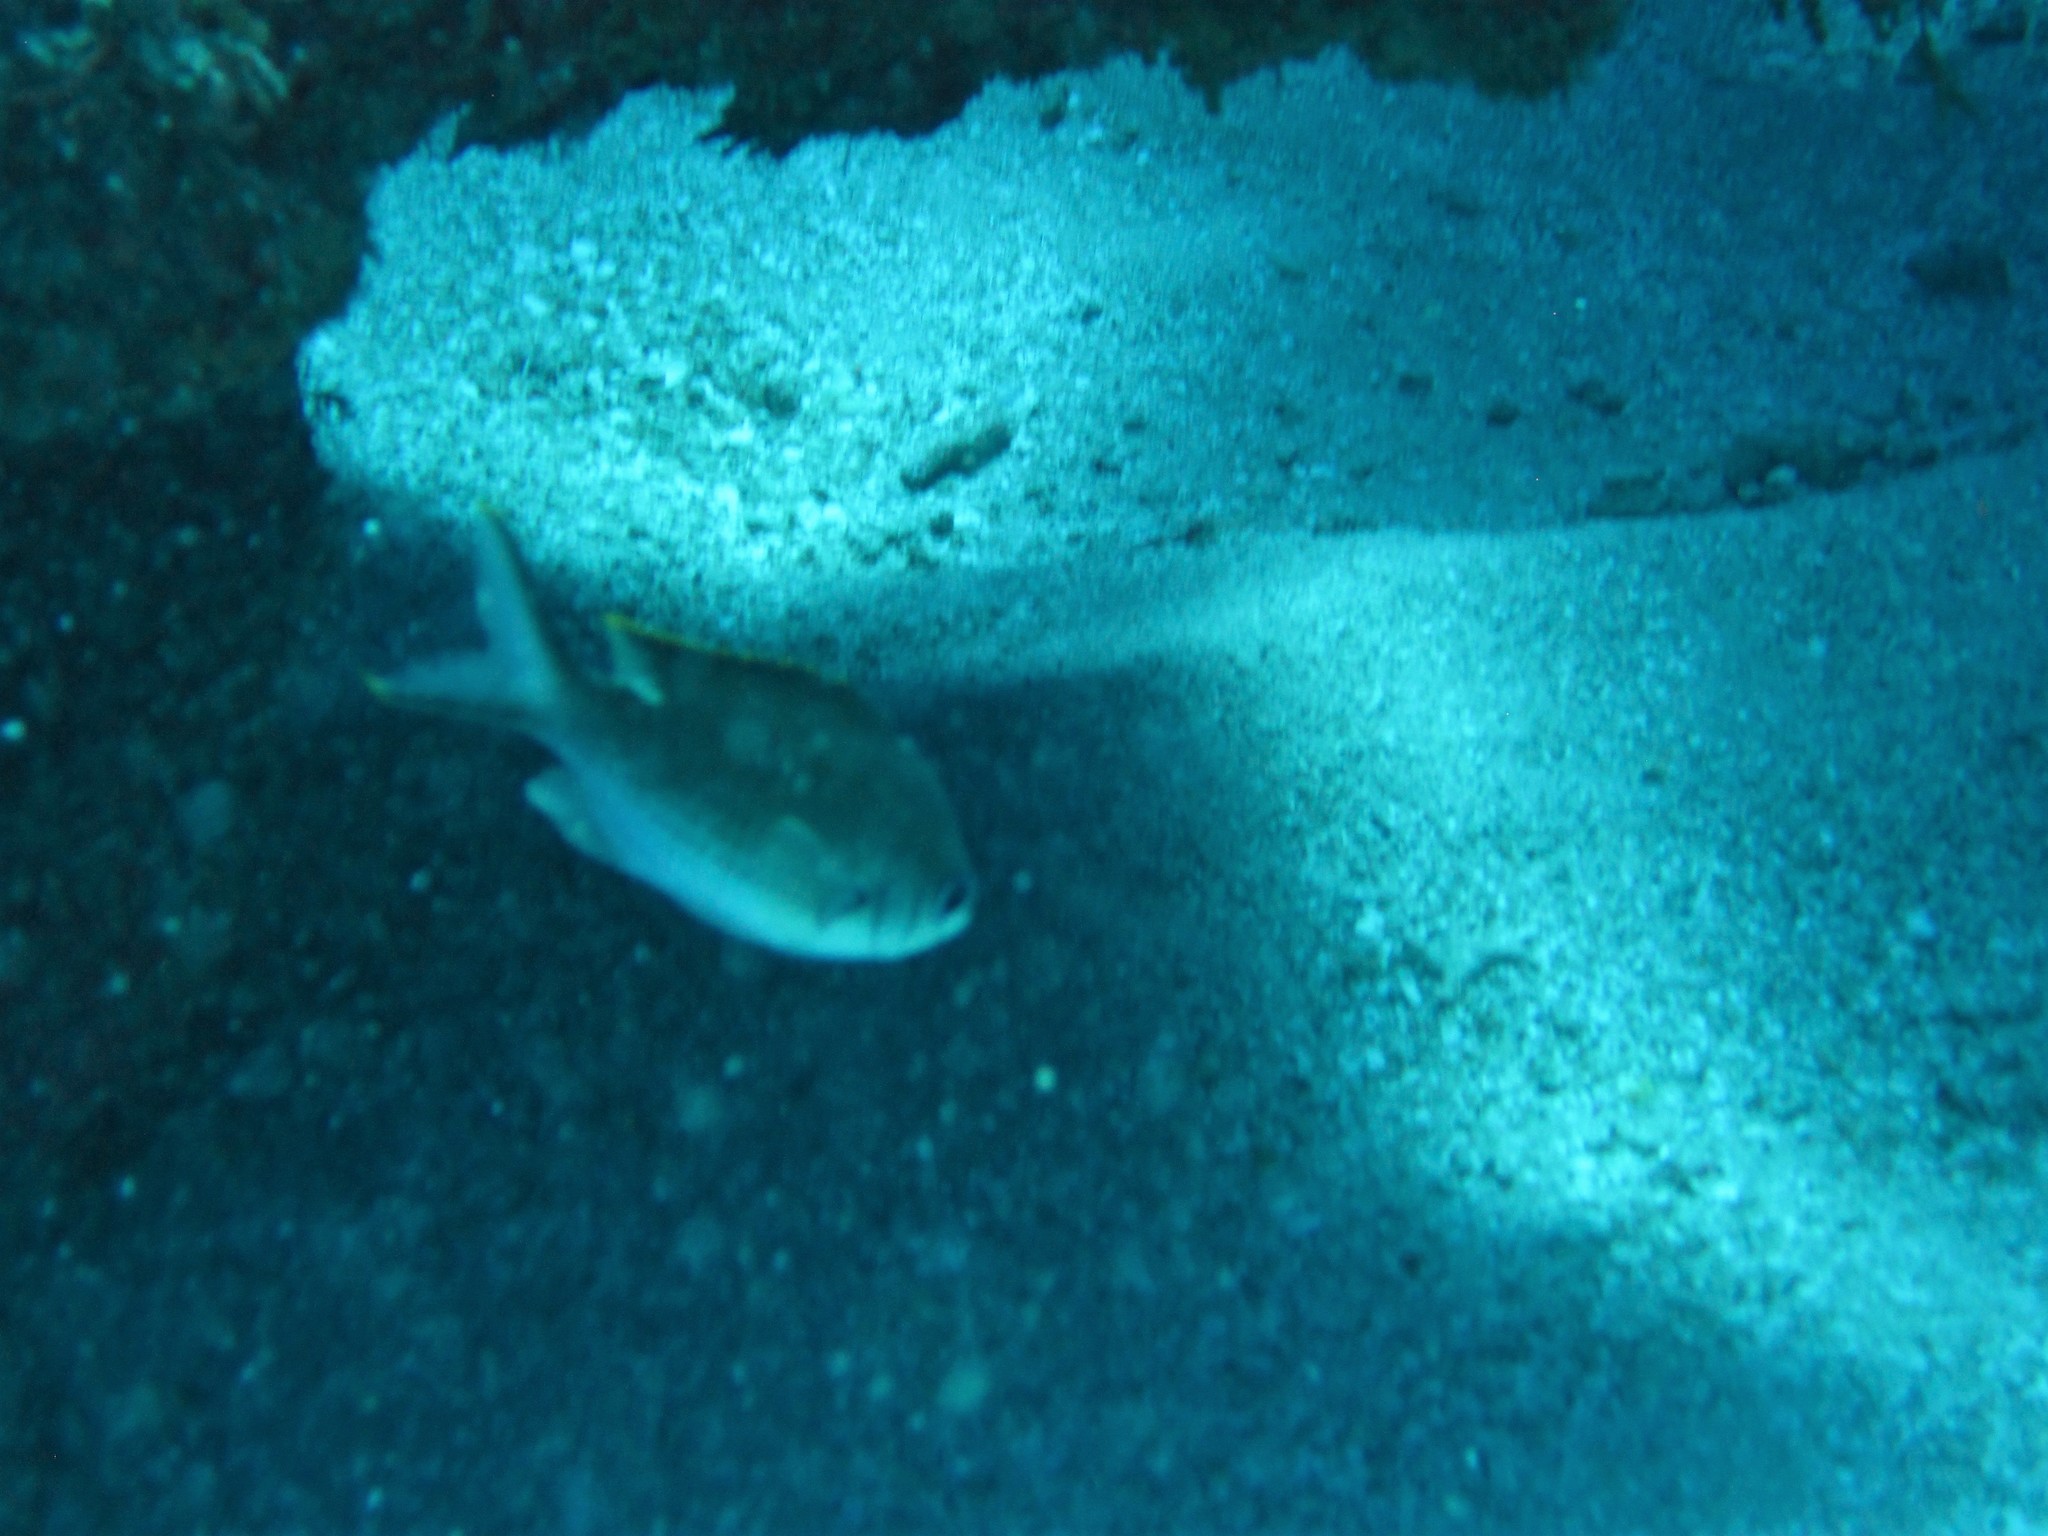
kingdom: Animalia
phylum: Chordata
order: Perciformes
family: Pomacentridae
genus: Chromis
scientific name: Chromis multilineata
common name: Brown chromis
